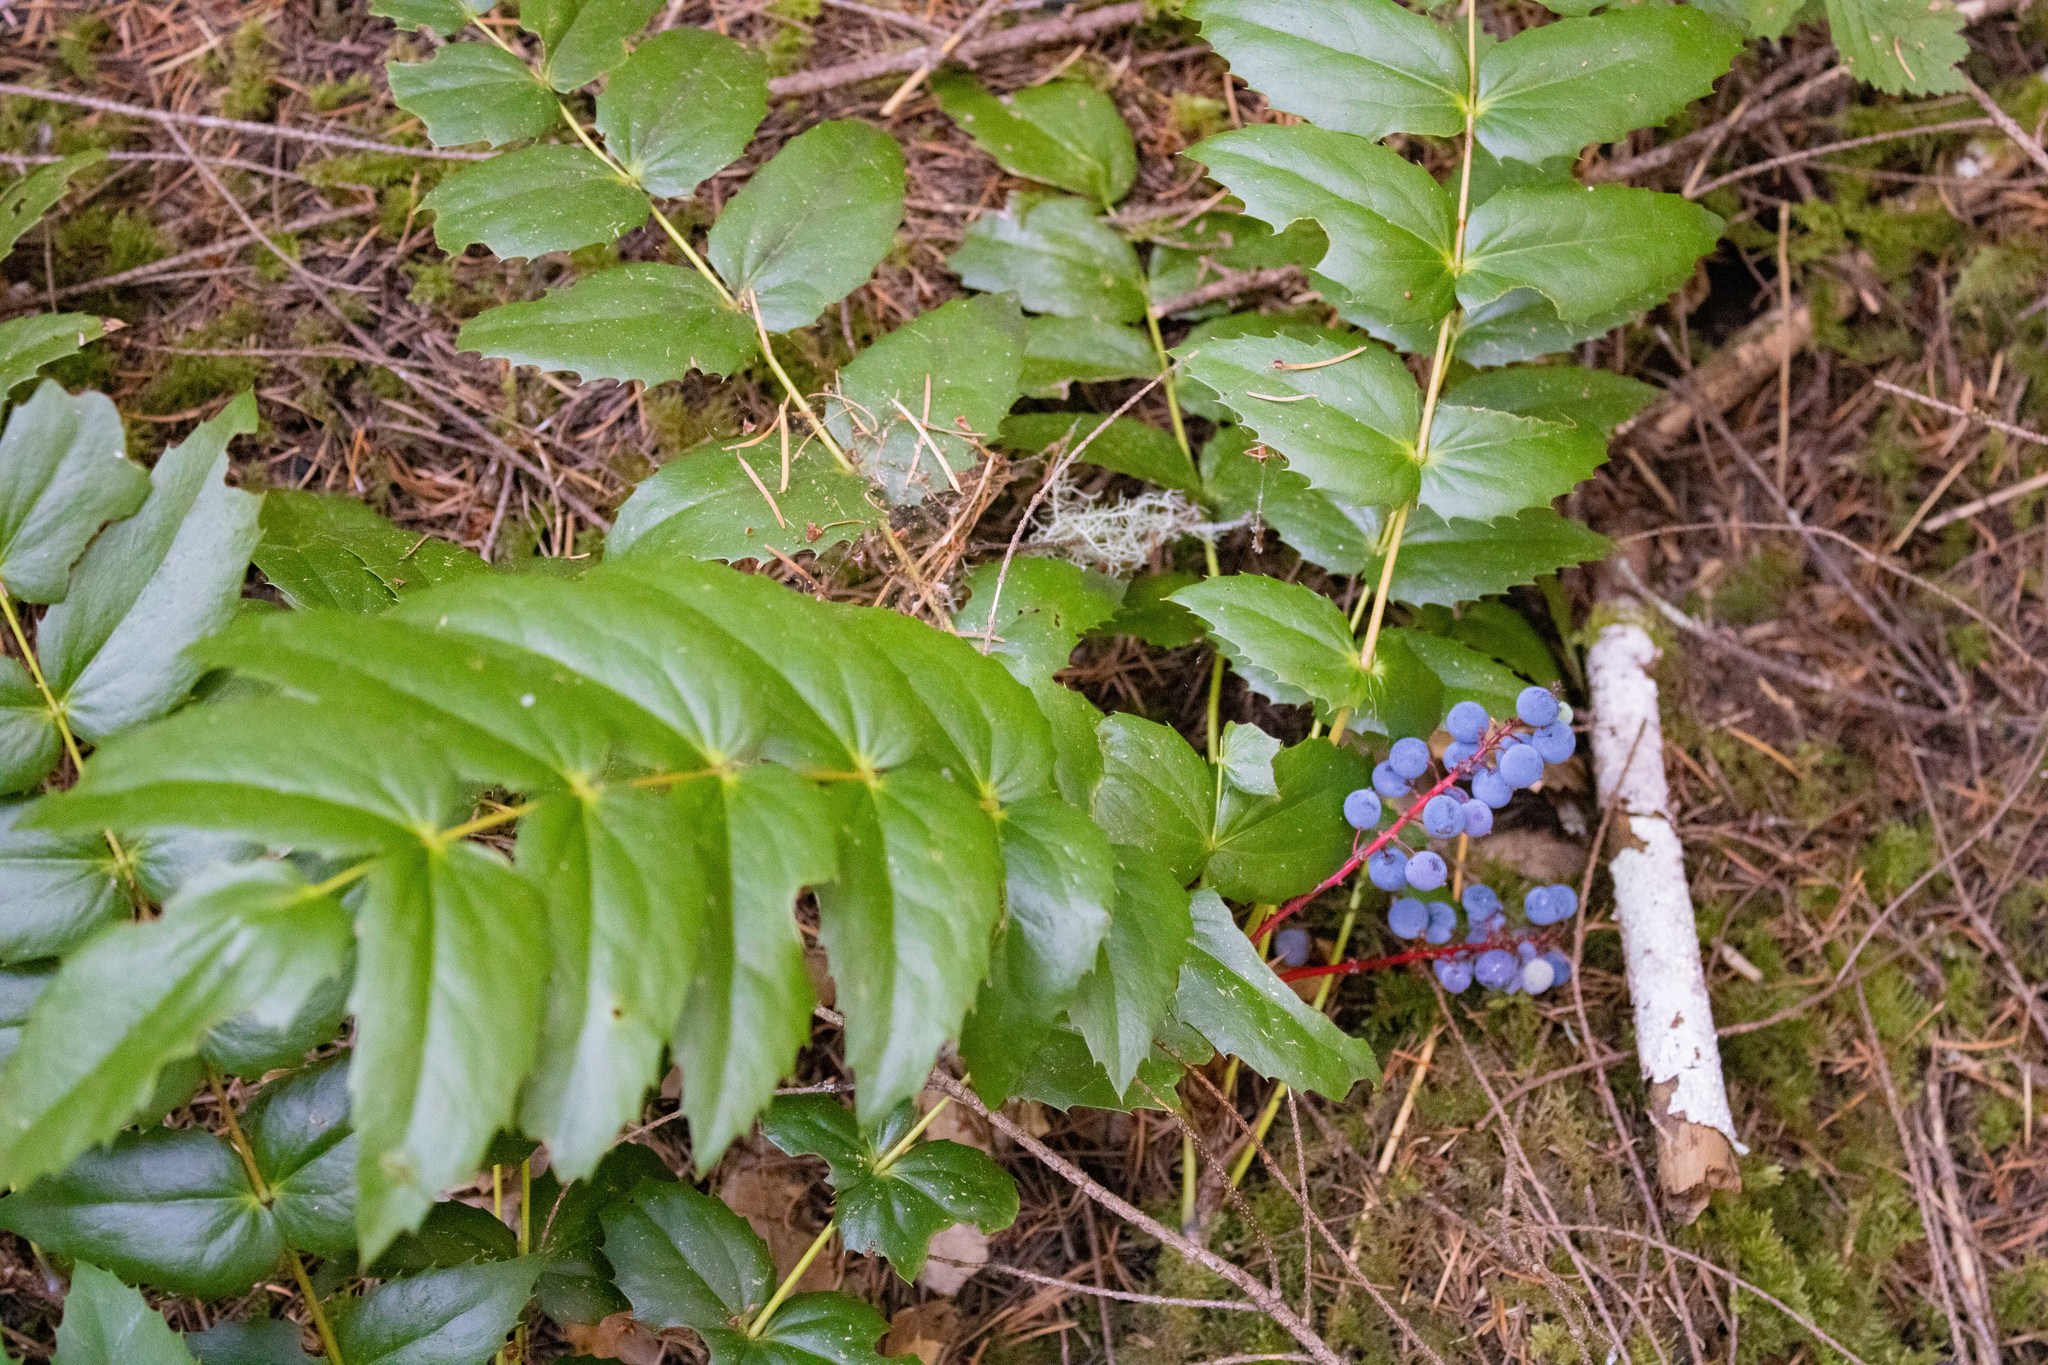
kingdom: Plantae
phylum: Tracheophyta
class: Magnoliopsida
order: Ranunculales
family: Berberidaceae
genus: Mahonia
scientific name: Mahonia nervosa
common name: Cascade oregon-grape
